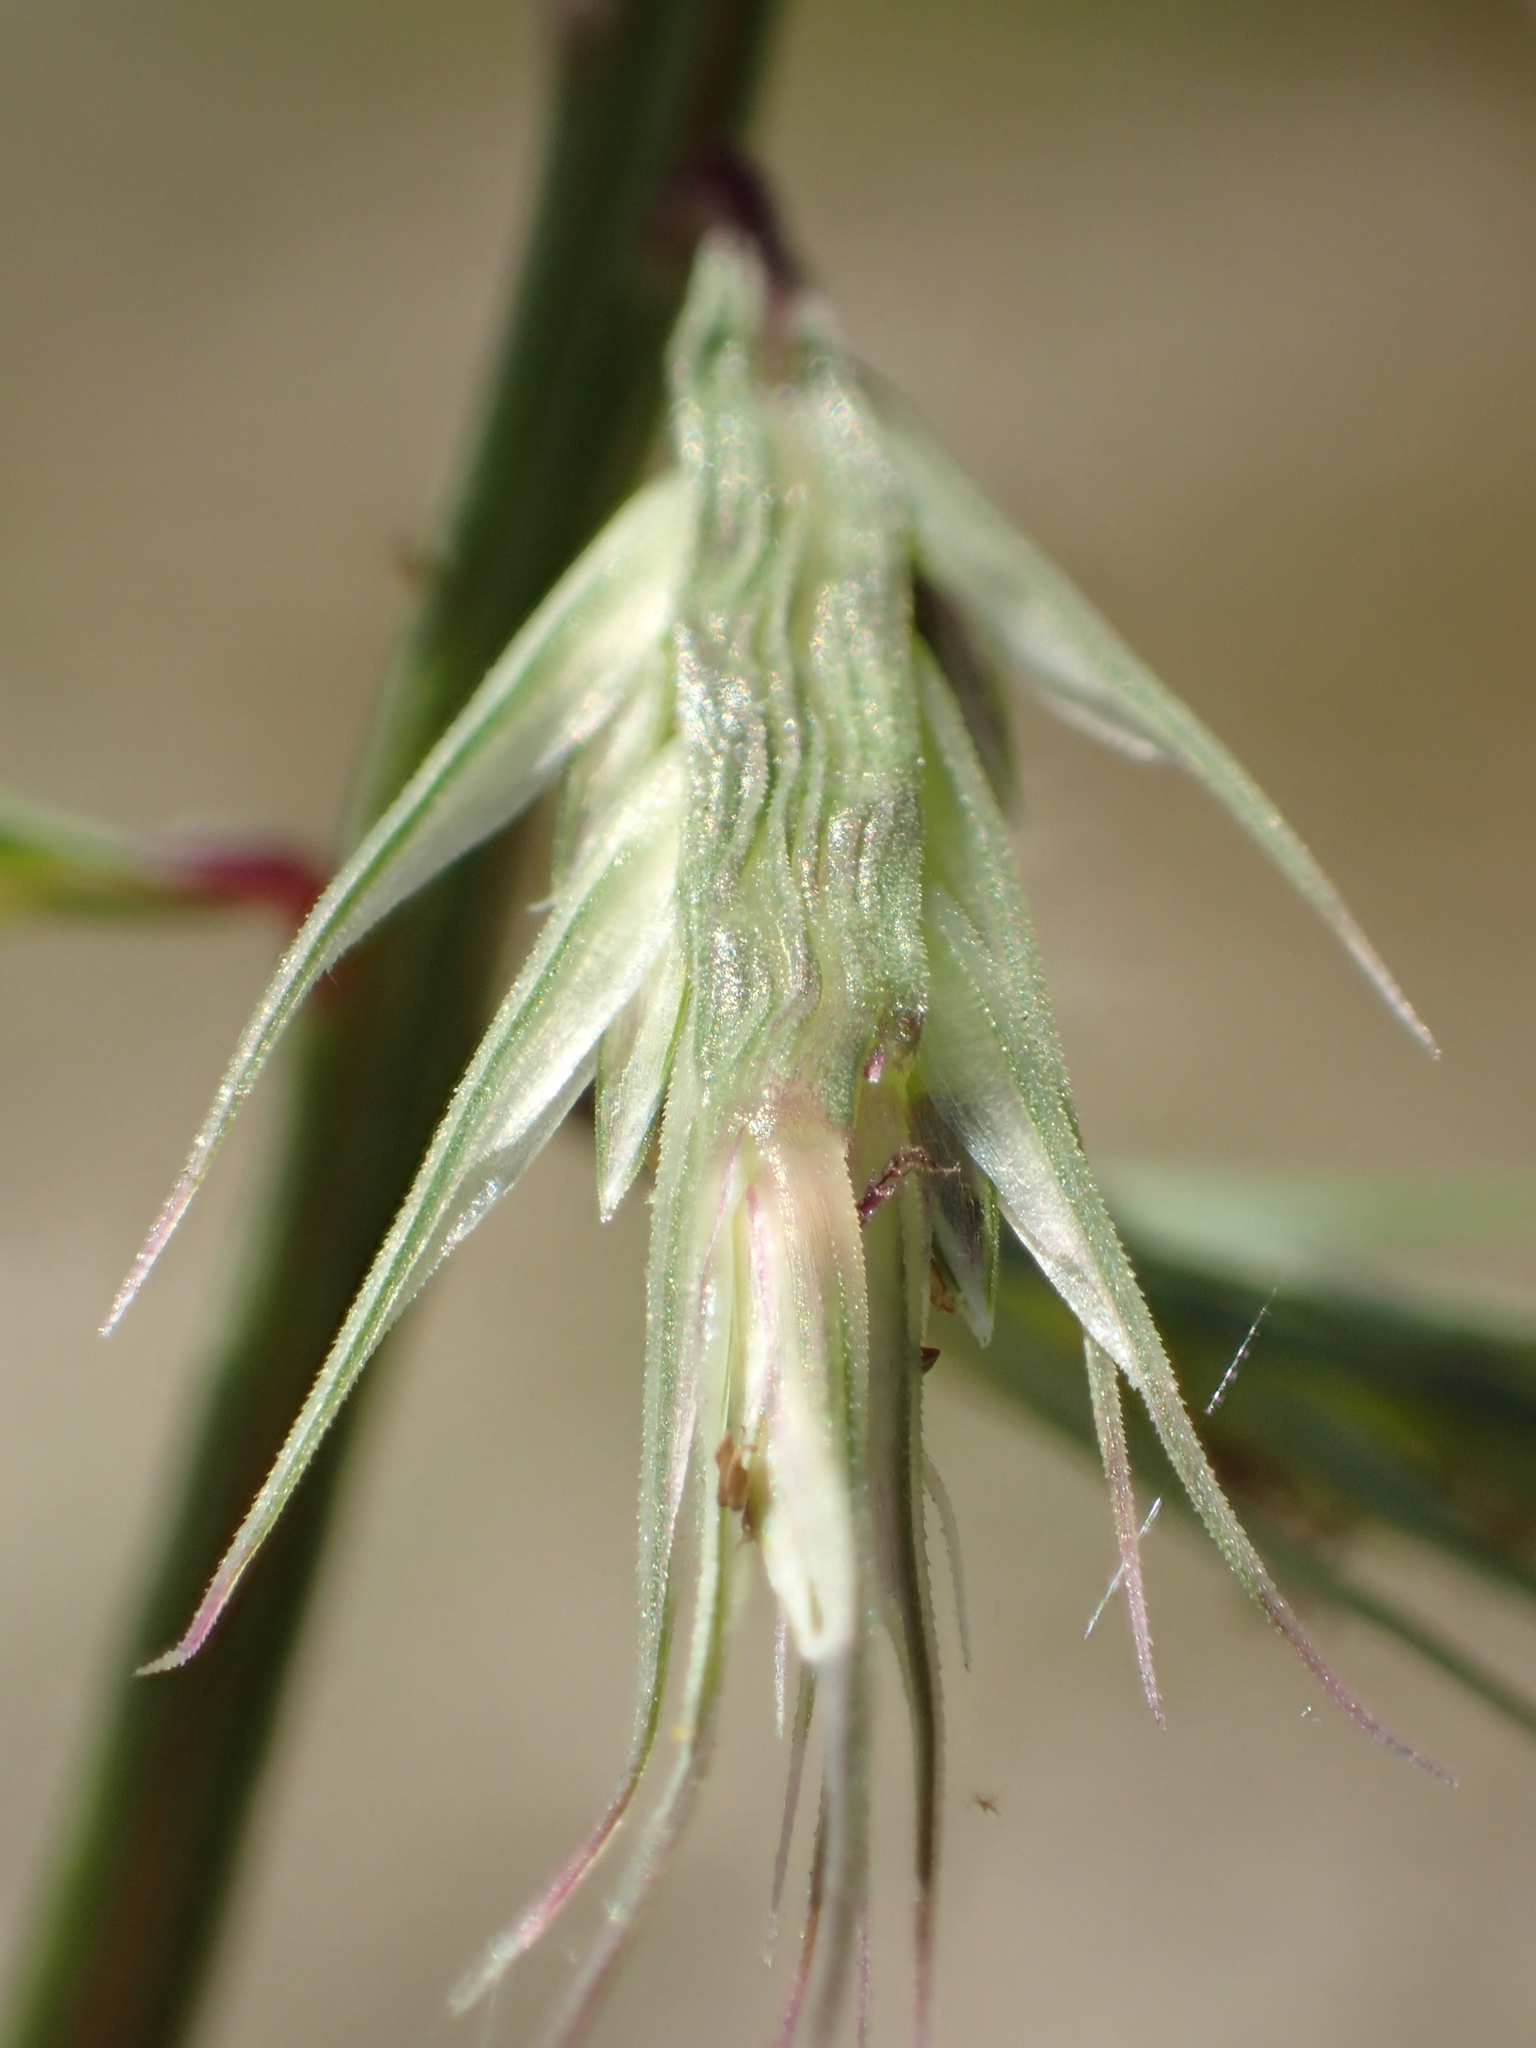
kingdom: Plantae
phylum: Tracheophyta
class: Liliopsida
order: Poales
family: Poaceae
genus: Dinebra
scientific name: Dinebra retroflexa
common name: Viper grass
